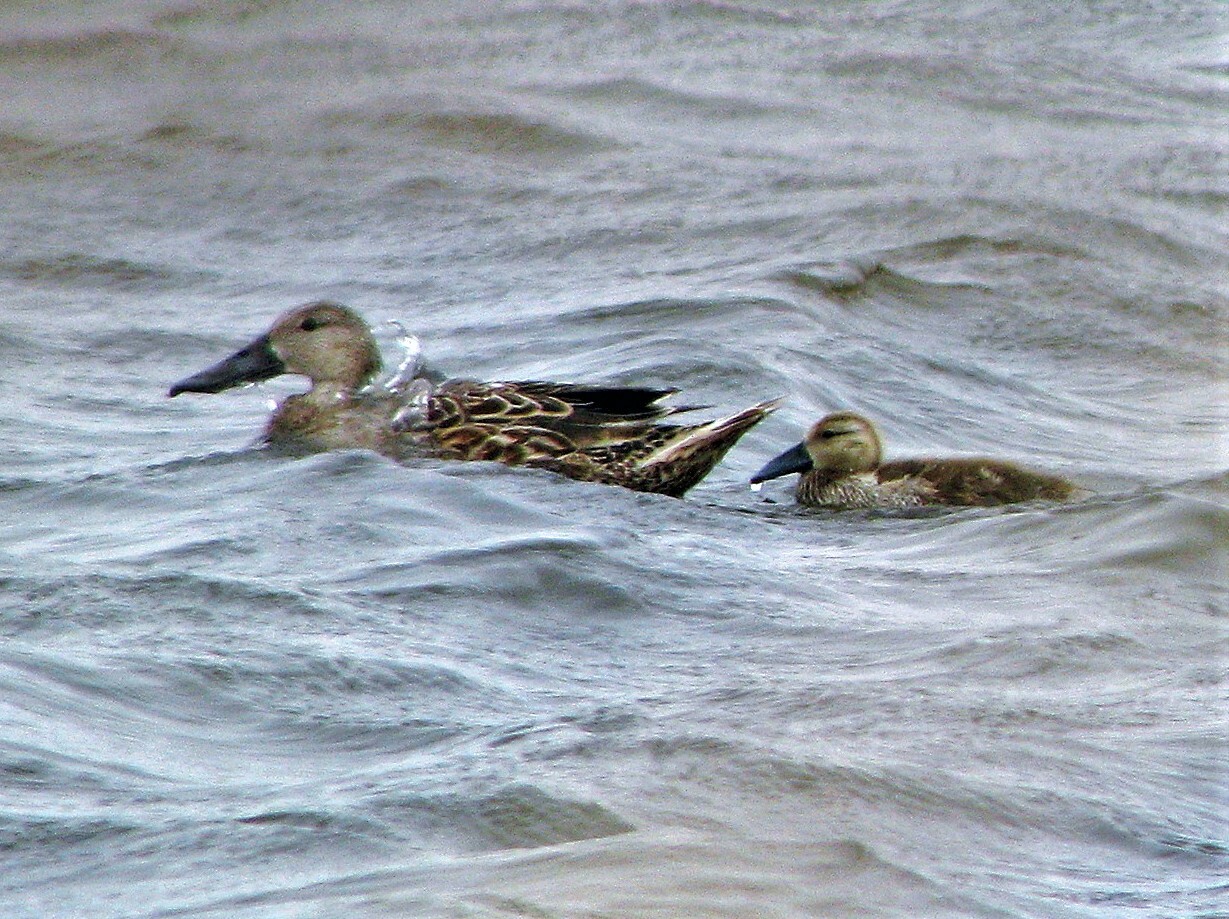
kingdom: Animalia
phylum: Chordata
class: Aves
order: Anseriformes
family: Anatidae
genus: Spatula
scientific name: Spatula platalea
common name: Red shoveler
